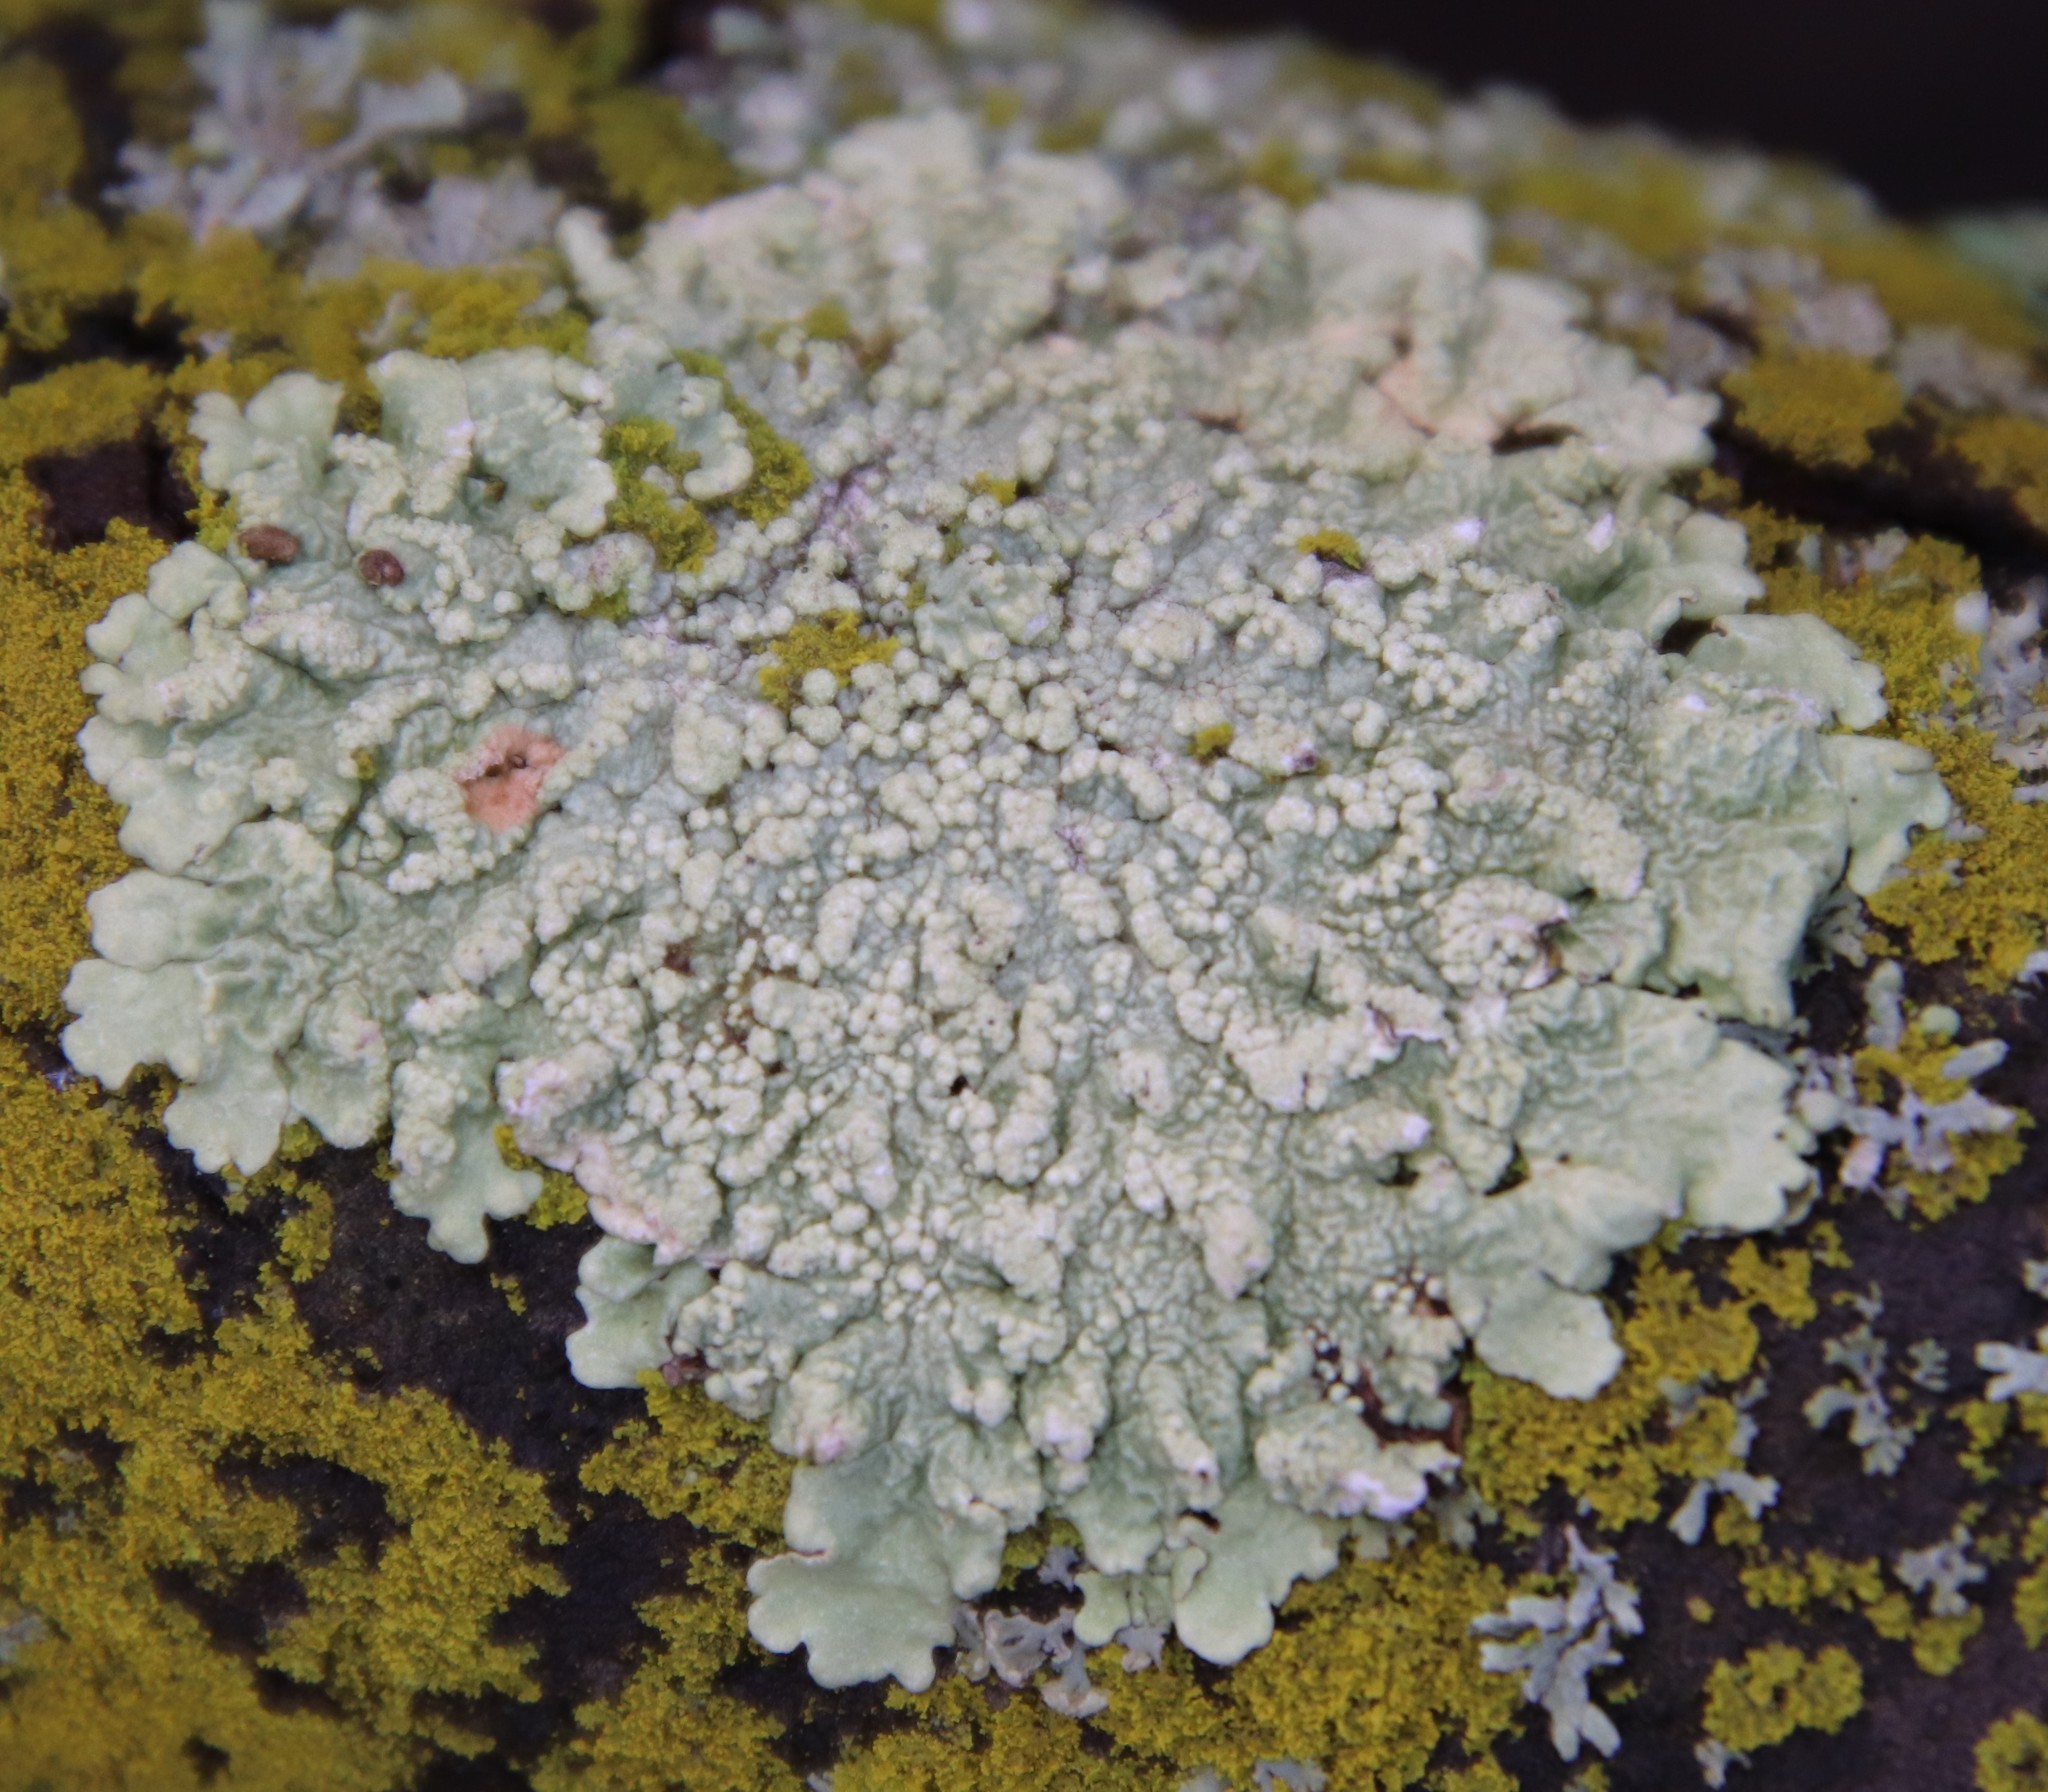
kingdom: Fungi
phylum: Ascomycota
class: Lecanoromycetes
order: Lecanorales
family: Parmeliaceae
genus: Flavopunctelia
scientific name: Flavopunctelia flaventior
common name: Speckled greenshield
